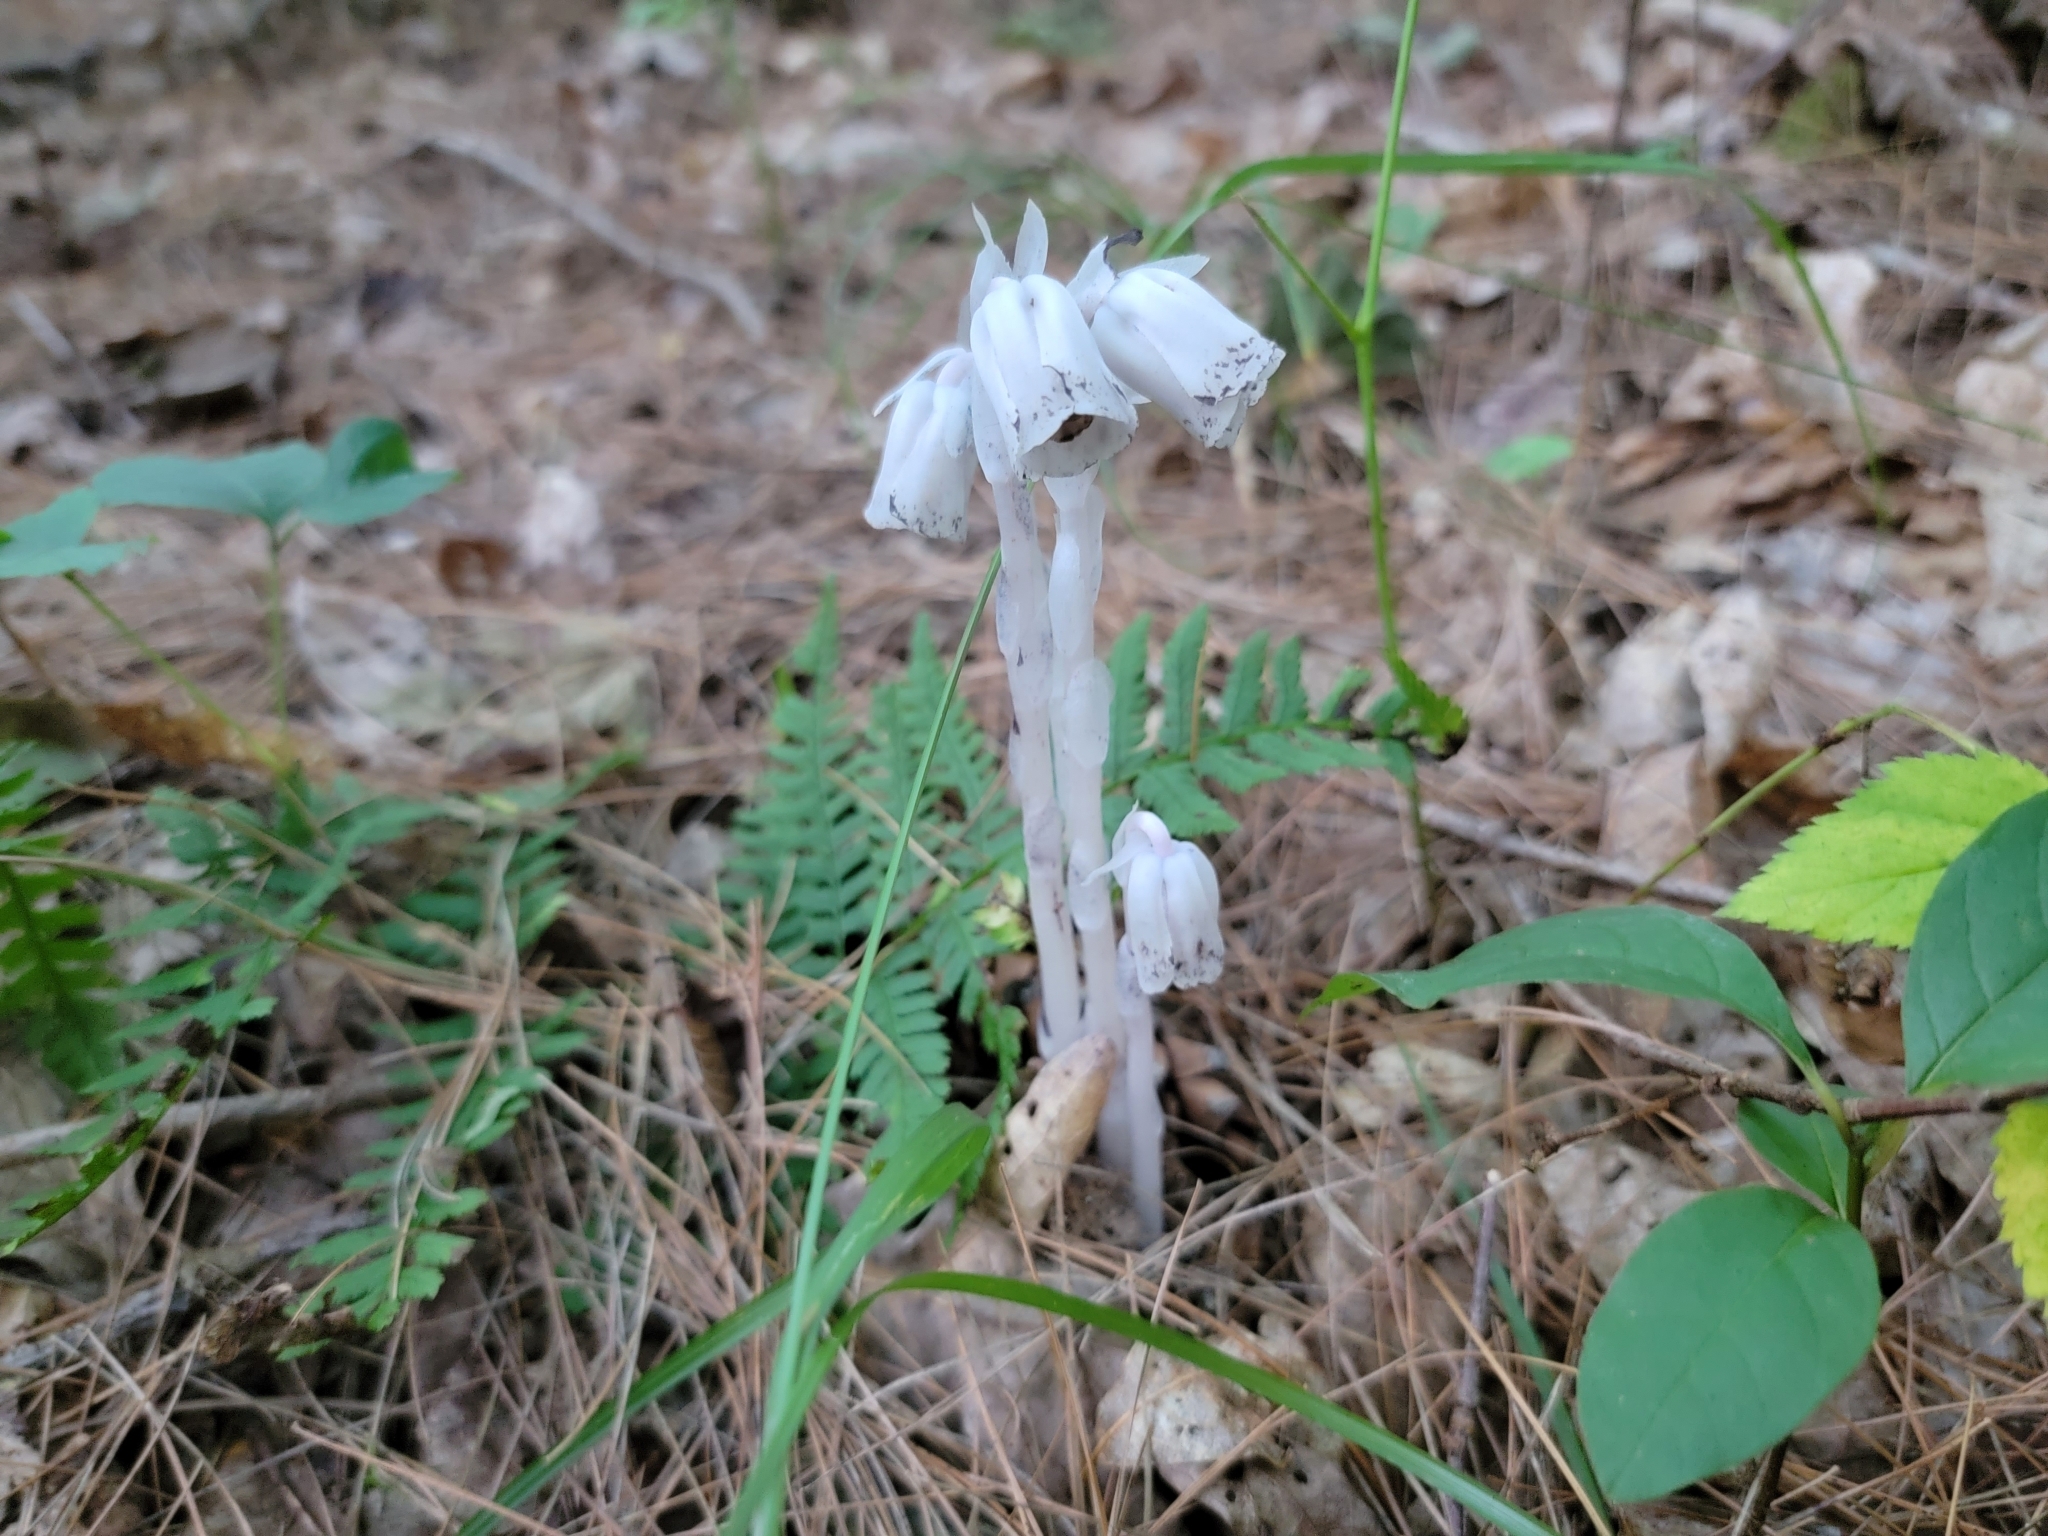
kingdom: Plantae
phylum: Tracheophyta
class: Magnoliopsida
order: Ericales
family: Ericaceae
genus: Monotropa
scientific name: Monotropa uniflora
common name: Convulsion root
